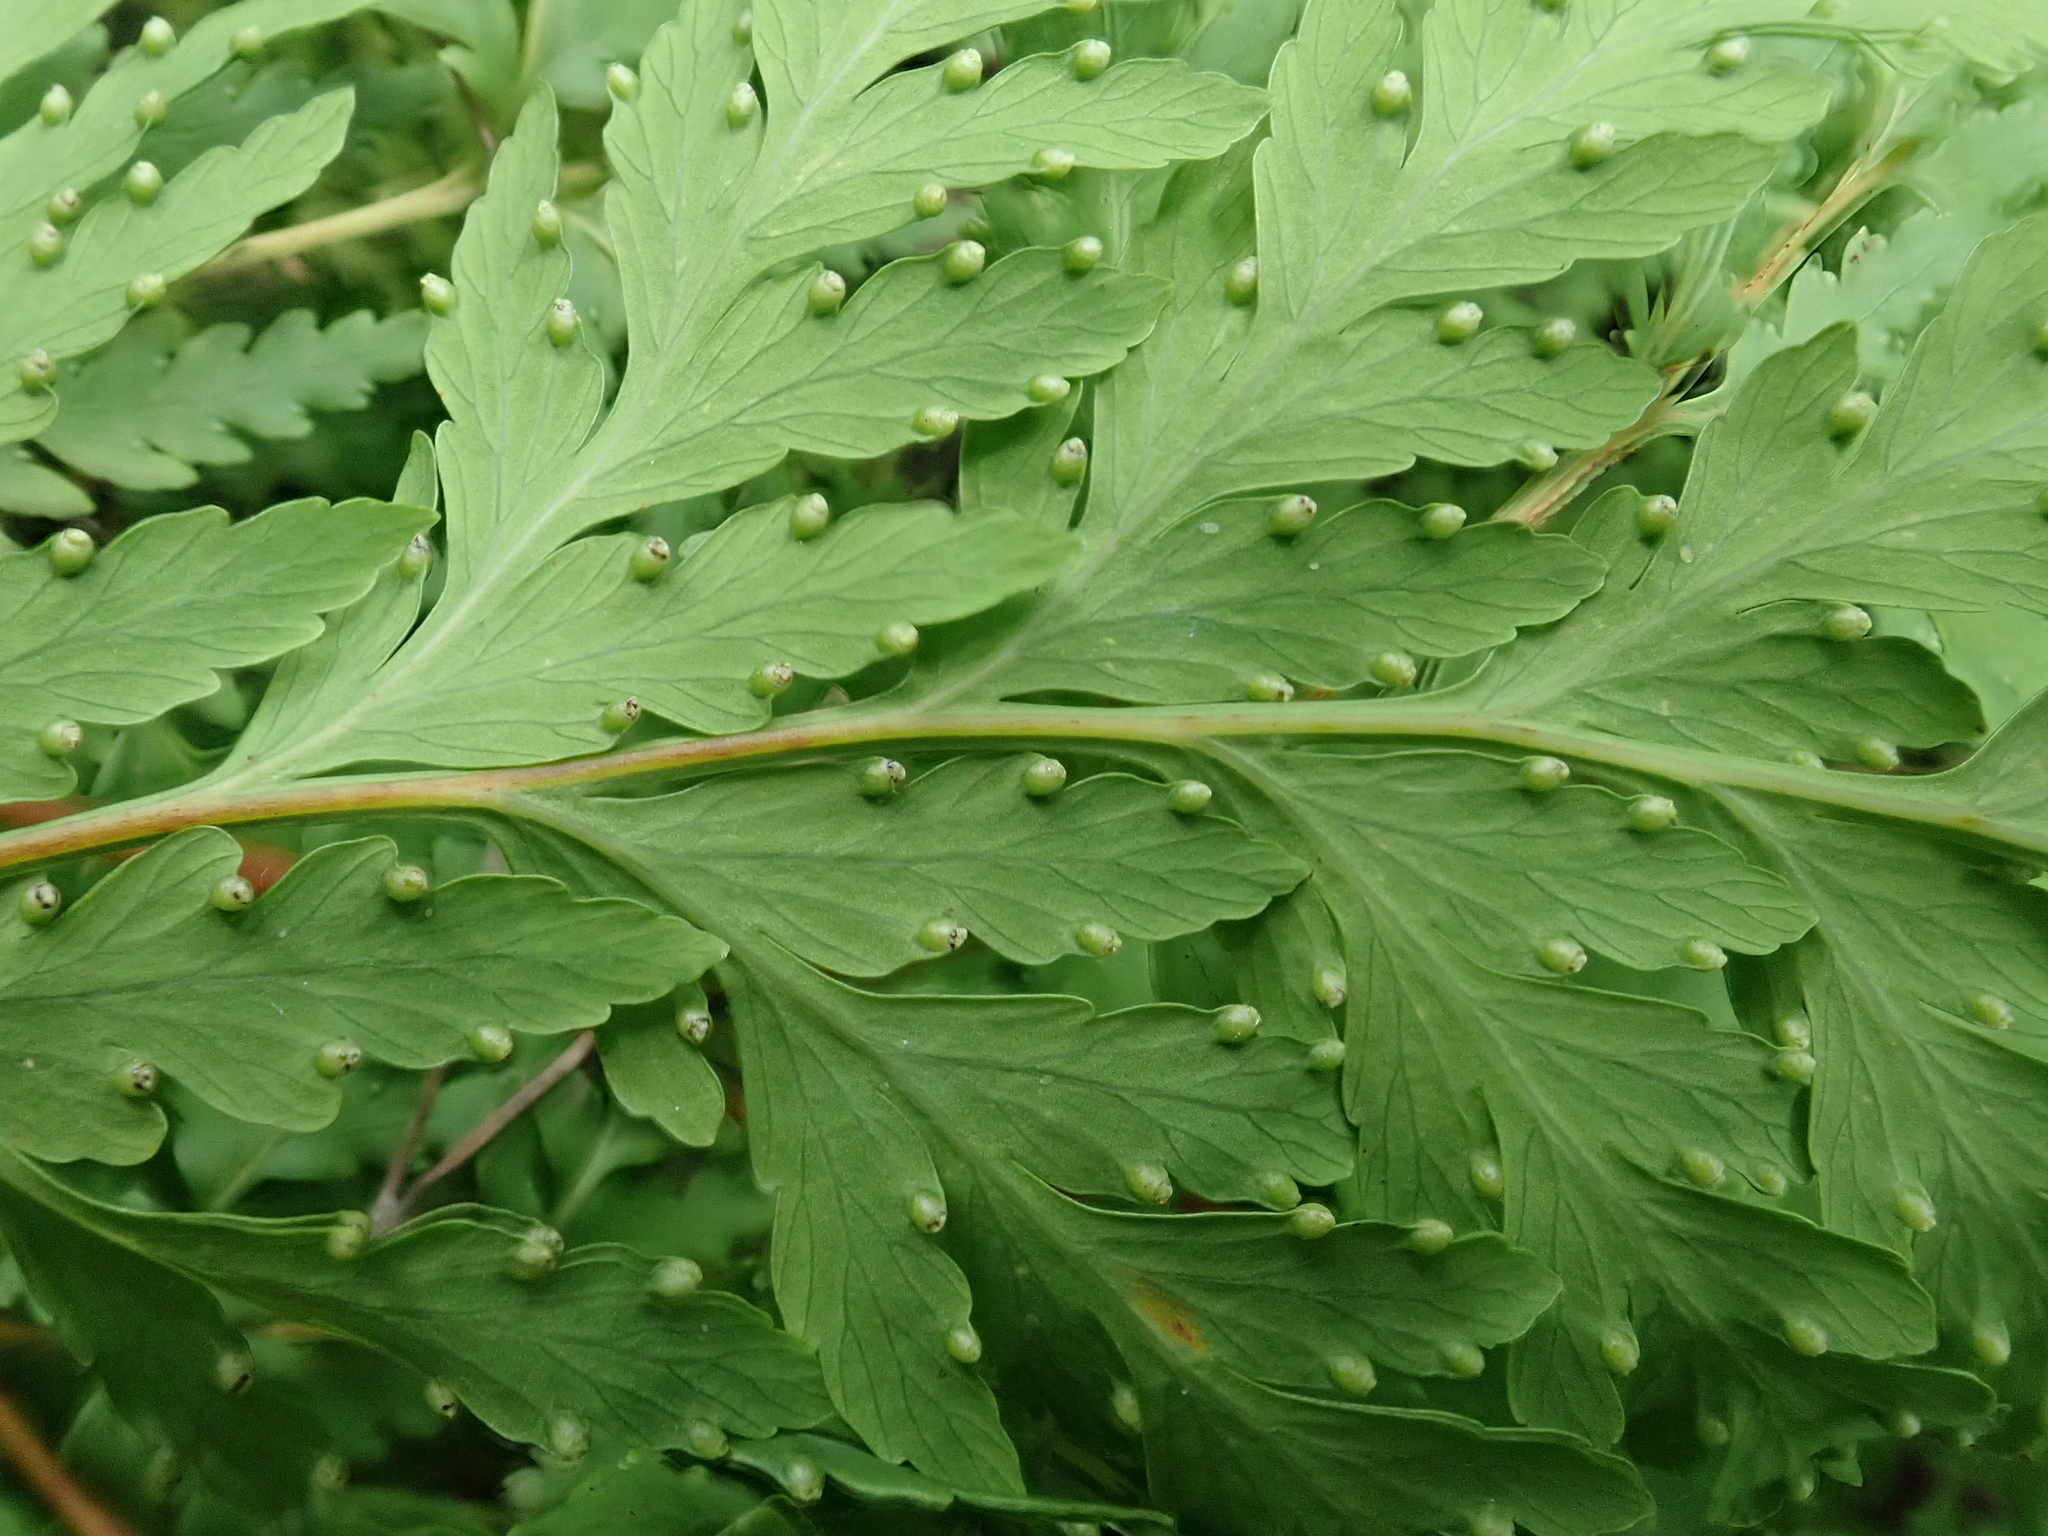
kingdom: Plantae
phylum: Tracheophyta
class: Polypodiopsida
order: Cyatheales
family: Loxsomataceae
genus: Loxsoma
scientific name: Loxsoma cunninghamii
